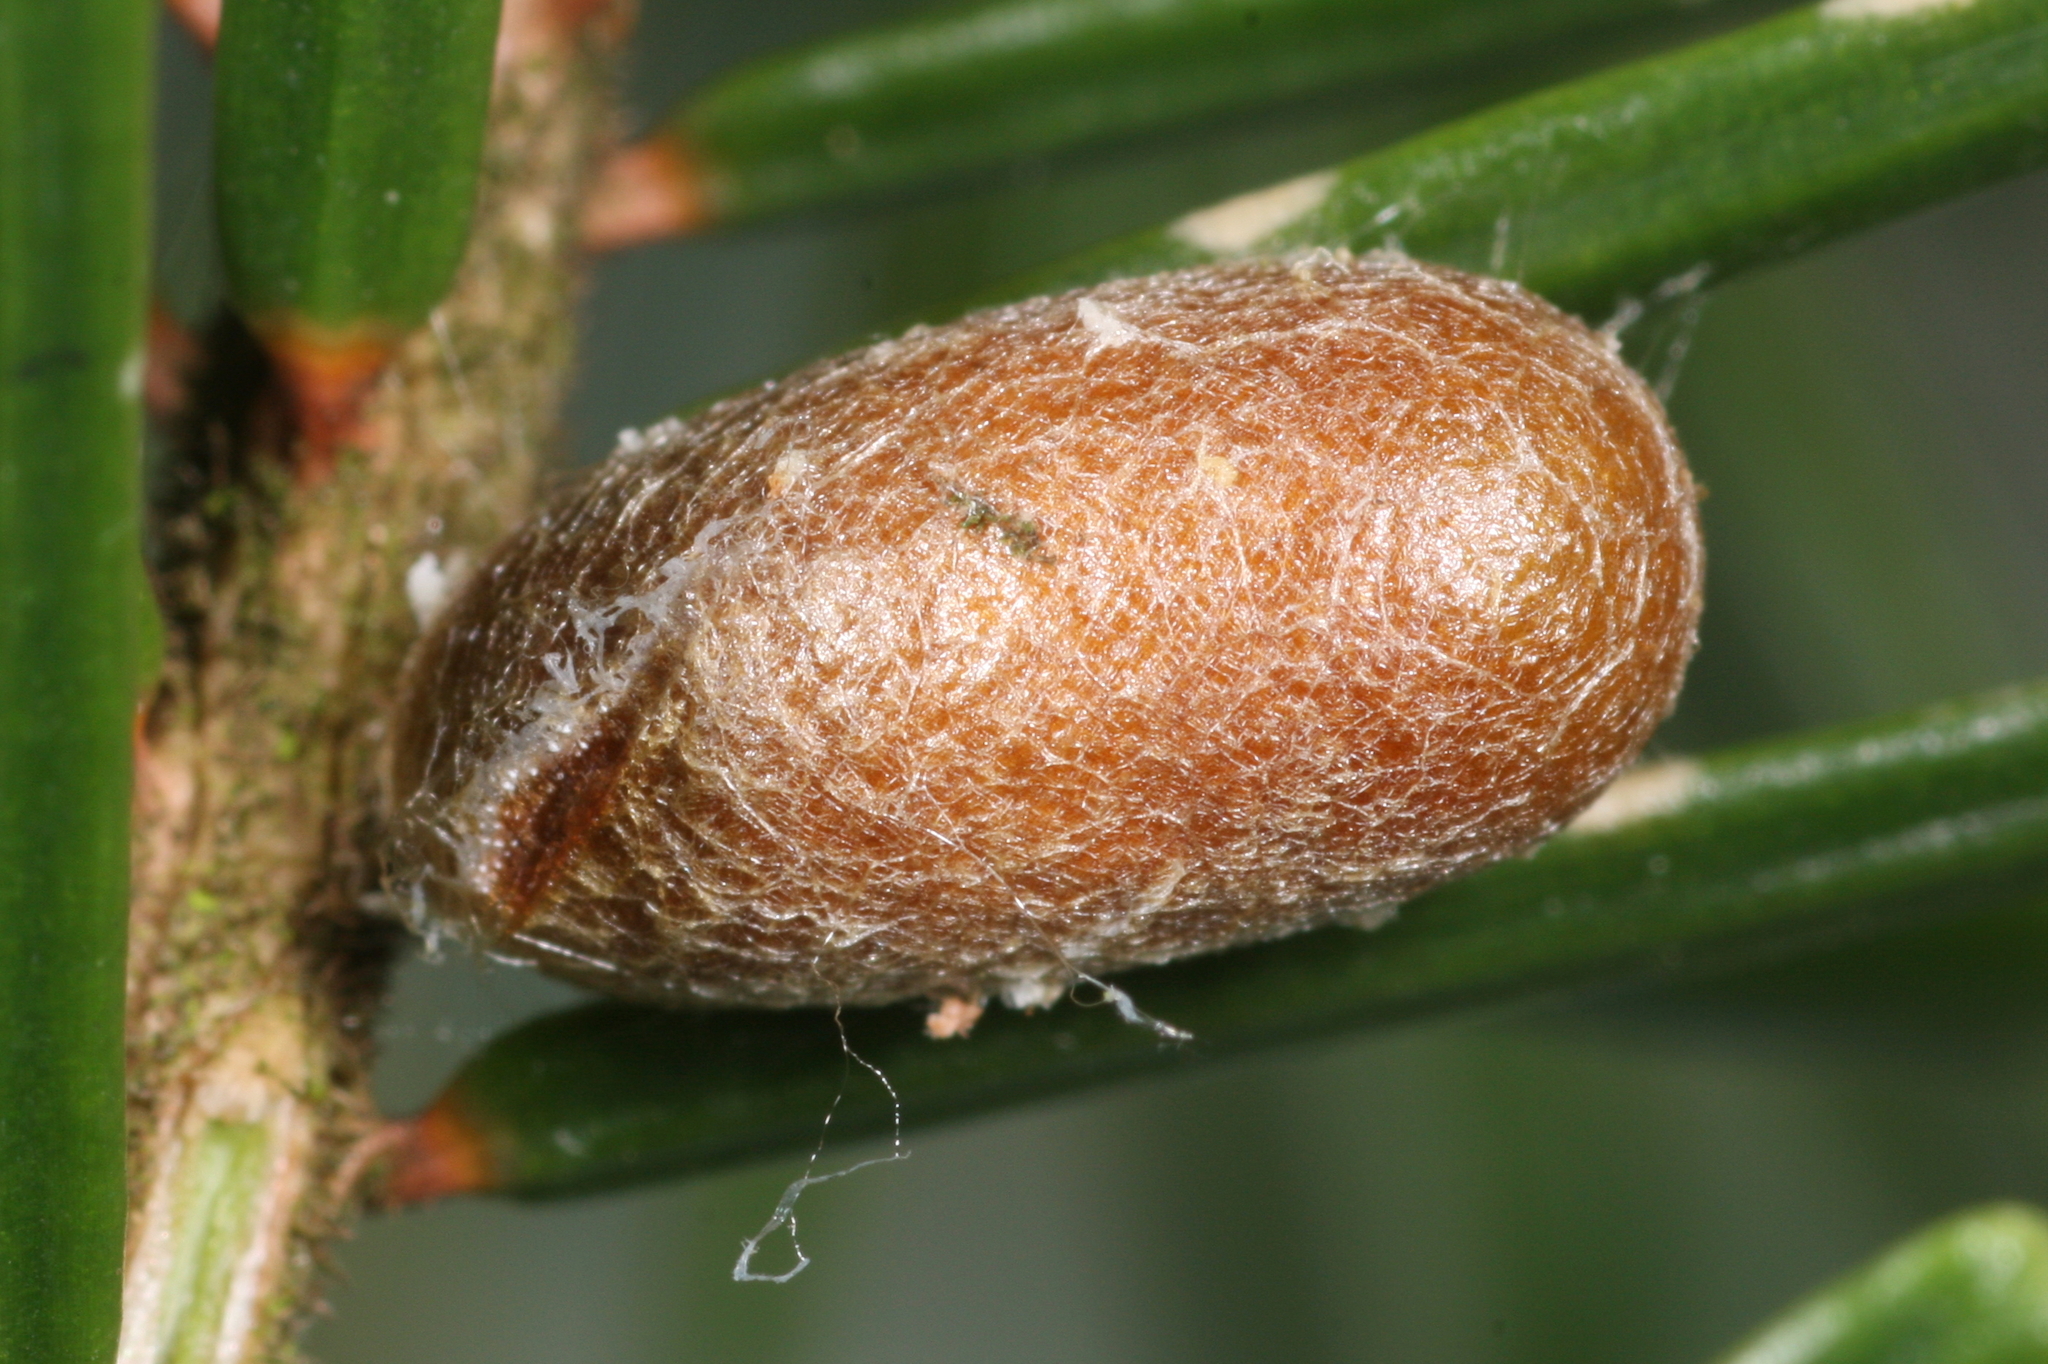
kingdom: Animalia
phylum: Arthropoda
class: Insecta
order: Hymenoptera
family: Diprionidae
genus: Diprion
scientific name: Diprion similis
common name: Pine sawfly
